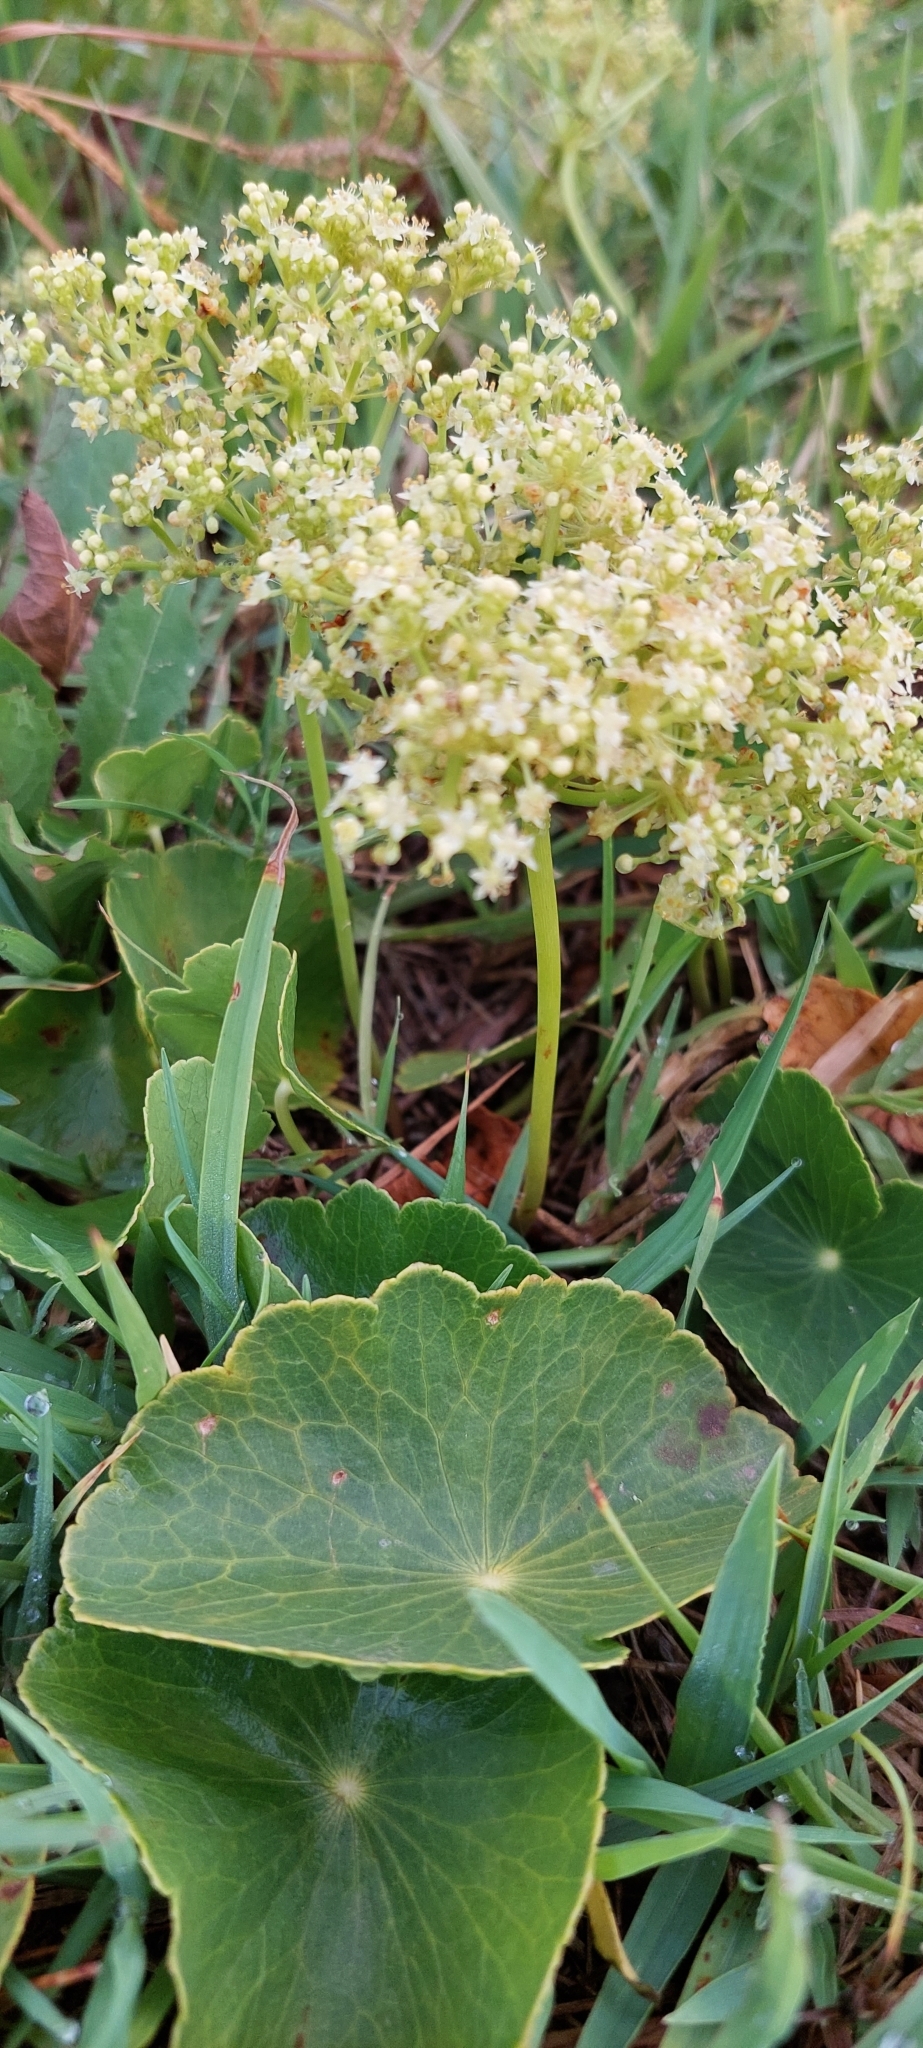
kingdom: Plantae
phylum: Tracheophyta
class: Magnoliopsida
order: Apiales
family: Araliaceae
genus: Hydrocotyle
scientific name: Hydrocotyle bonariensis
